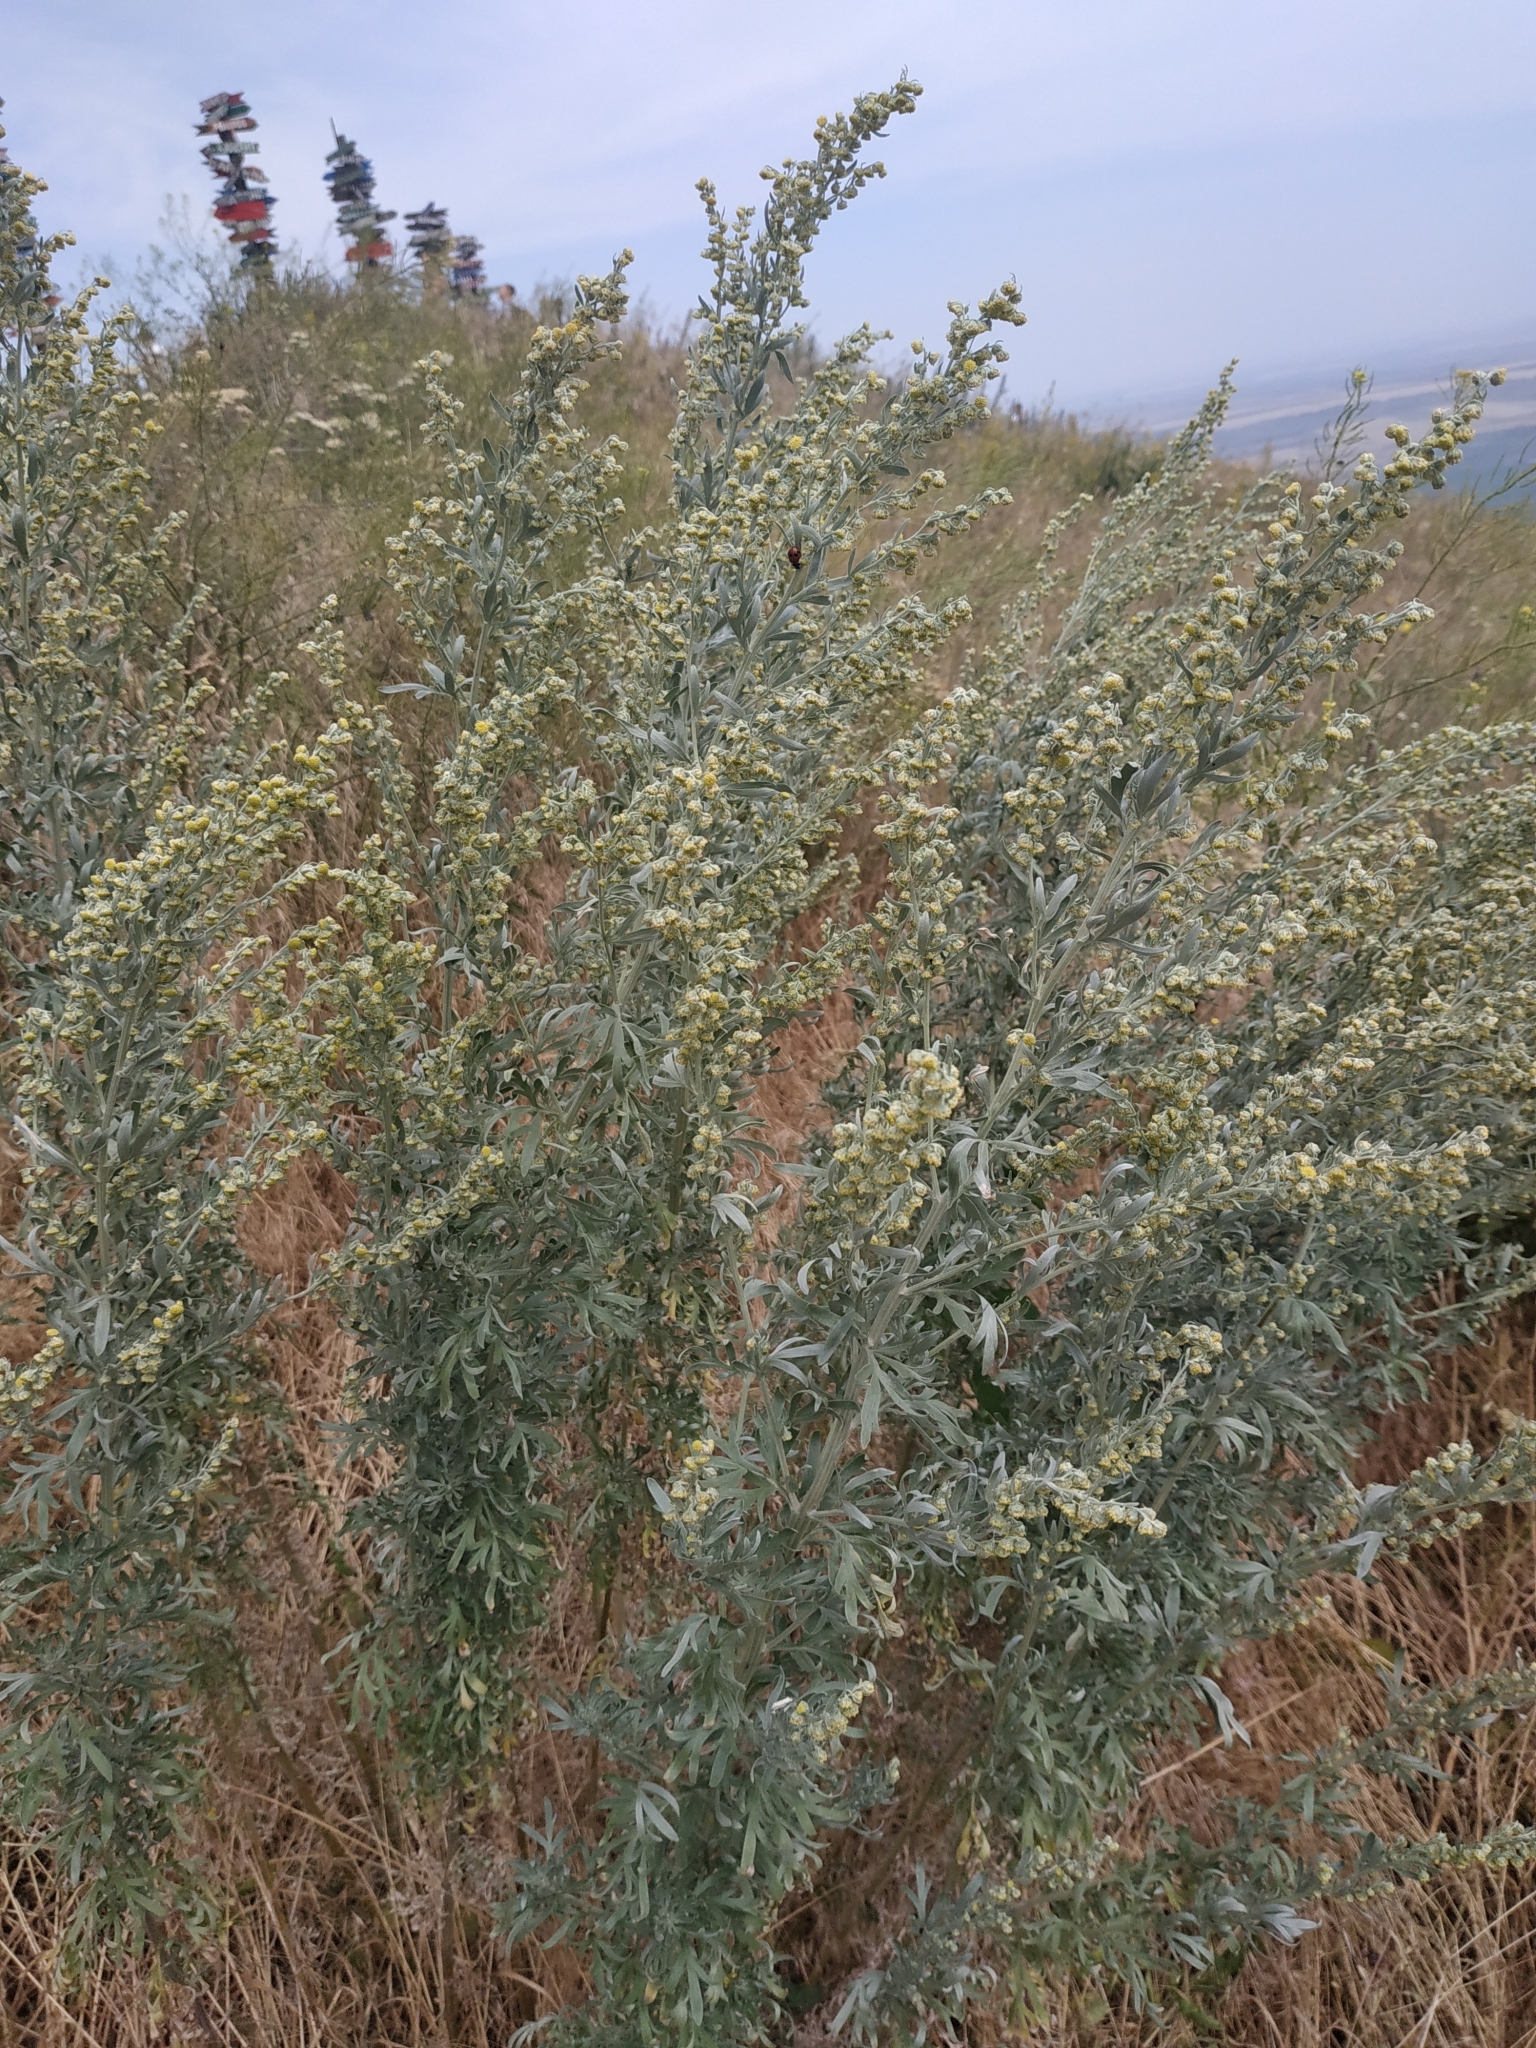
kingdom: Plantae
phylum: Tracheophyta
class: Magnoliopsida
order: Asterales
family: Asteraceae
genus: Artemisia
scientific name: Artemisia absinthium
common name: Wormwood
